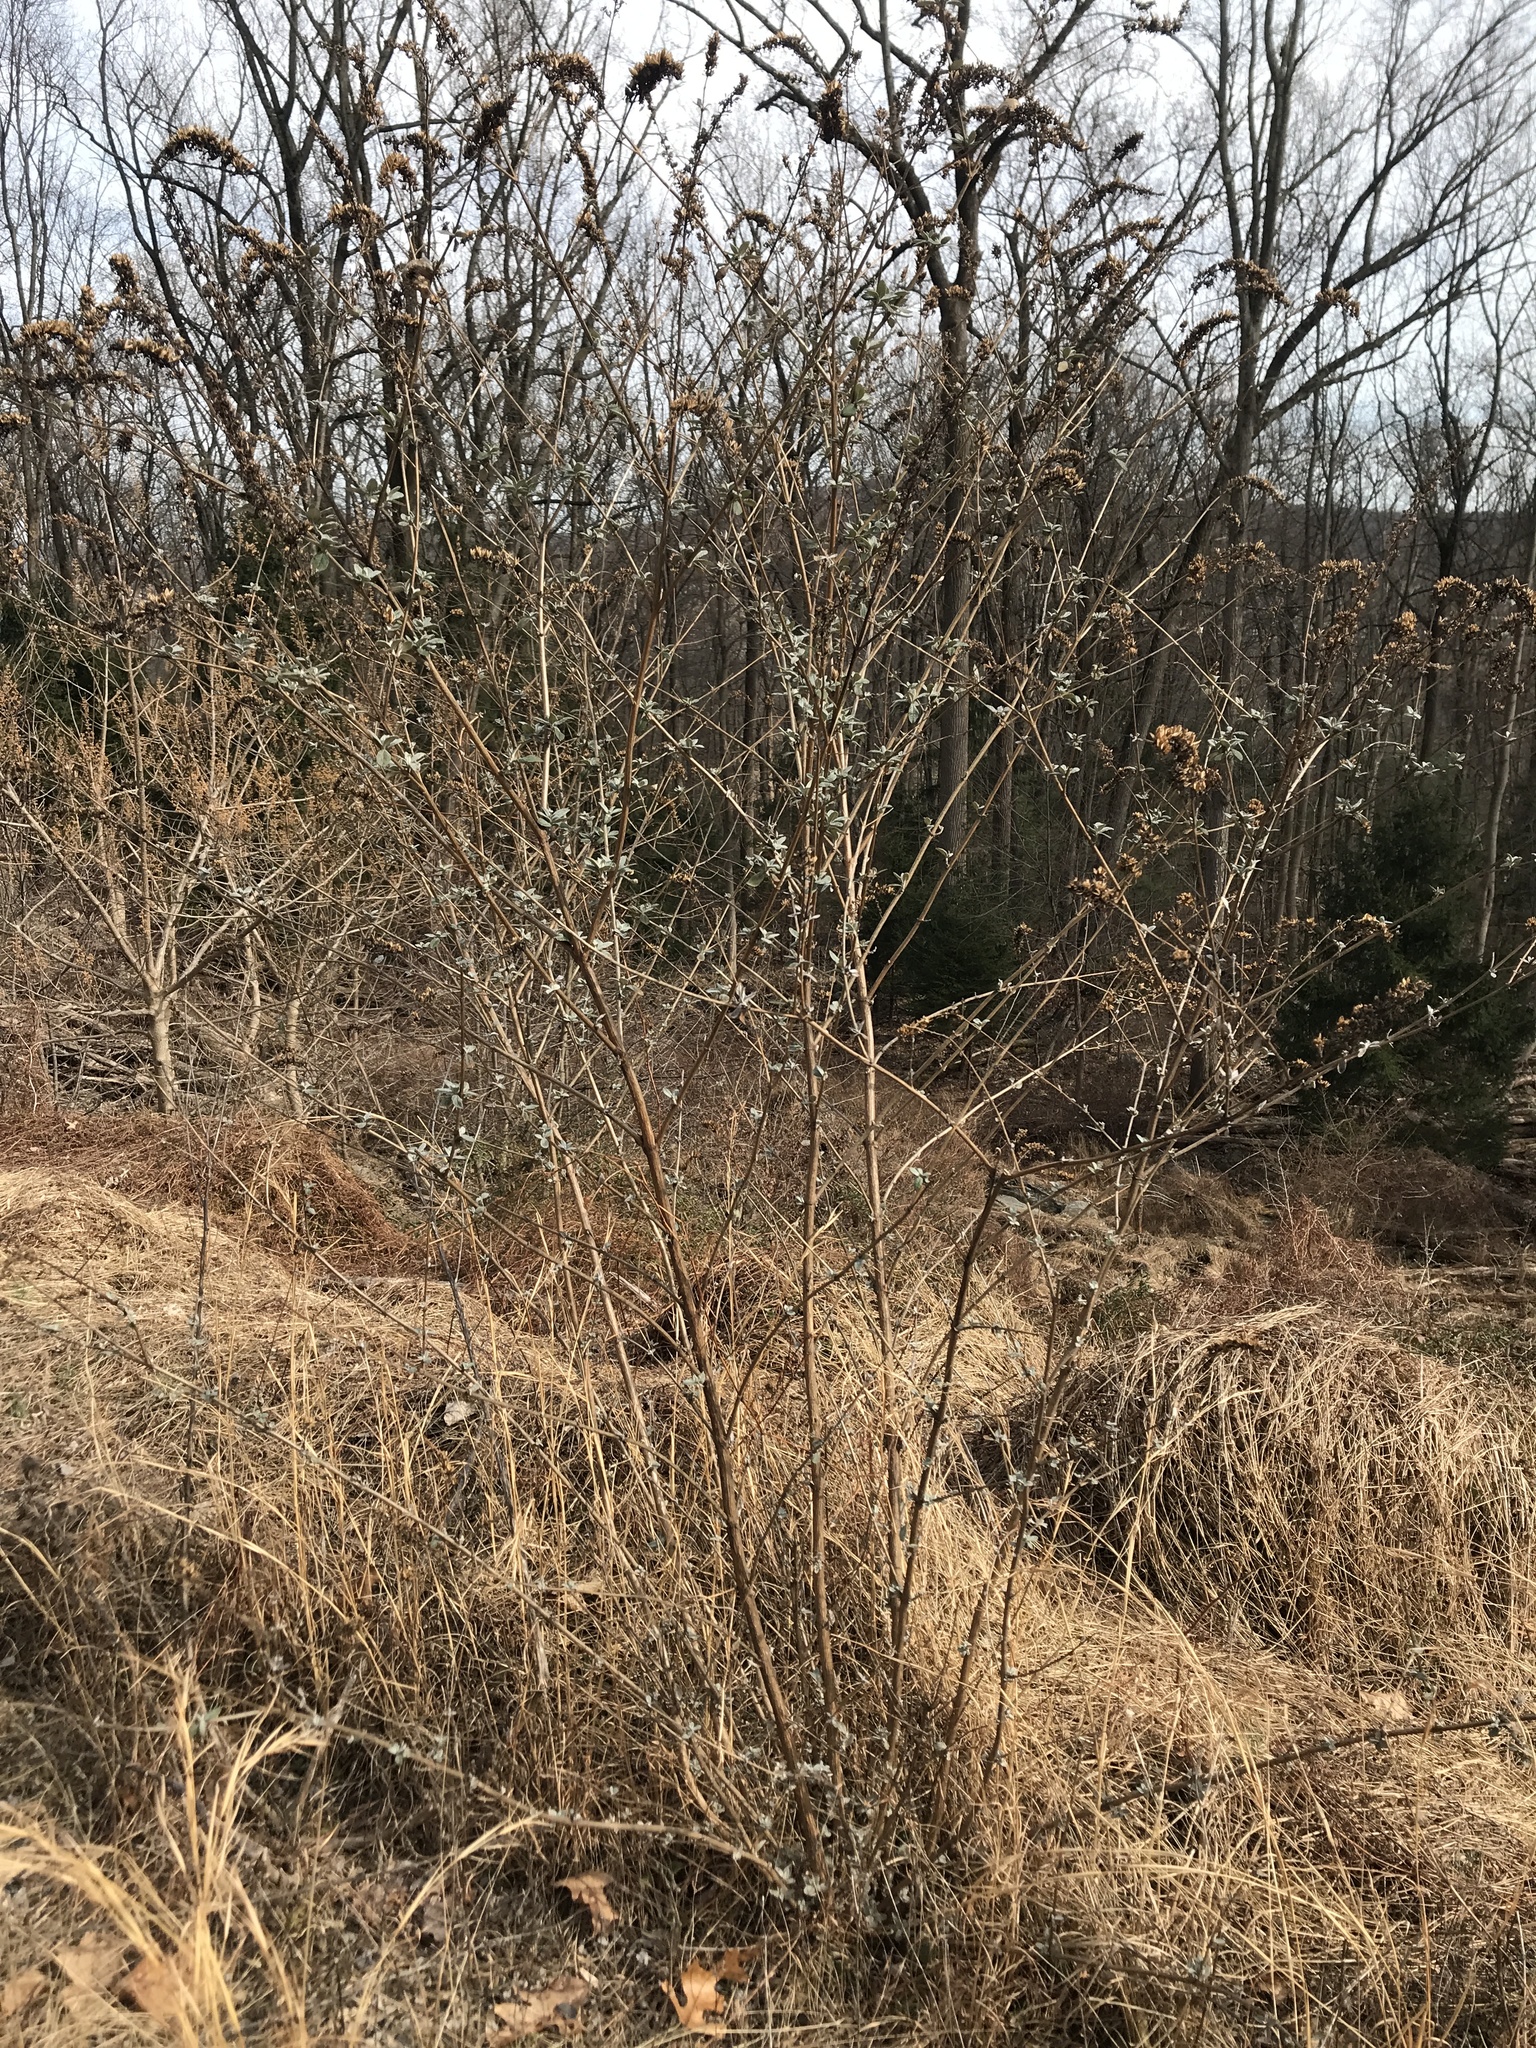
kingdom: Plantae
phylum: Tracheophyta
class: Magnoliopsida
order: Lamiales
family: Scrophulariaceae
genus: Buddleja
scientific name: Buddleja davidii
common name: Butterfly-bush
